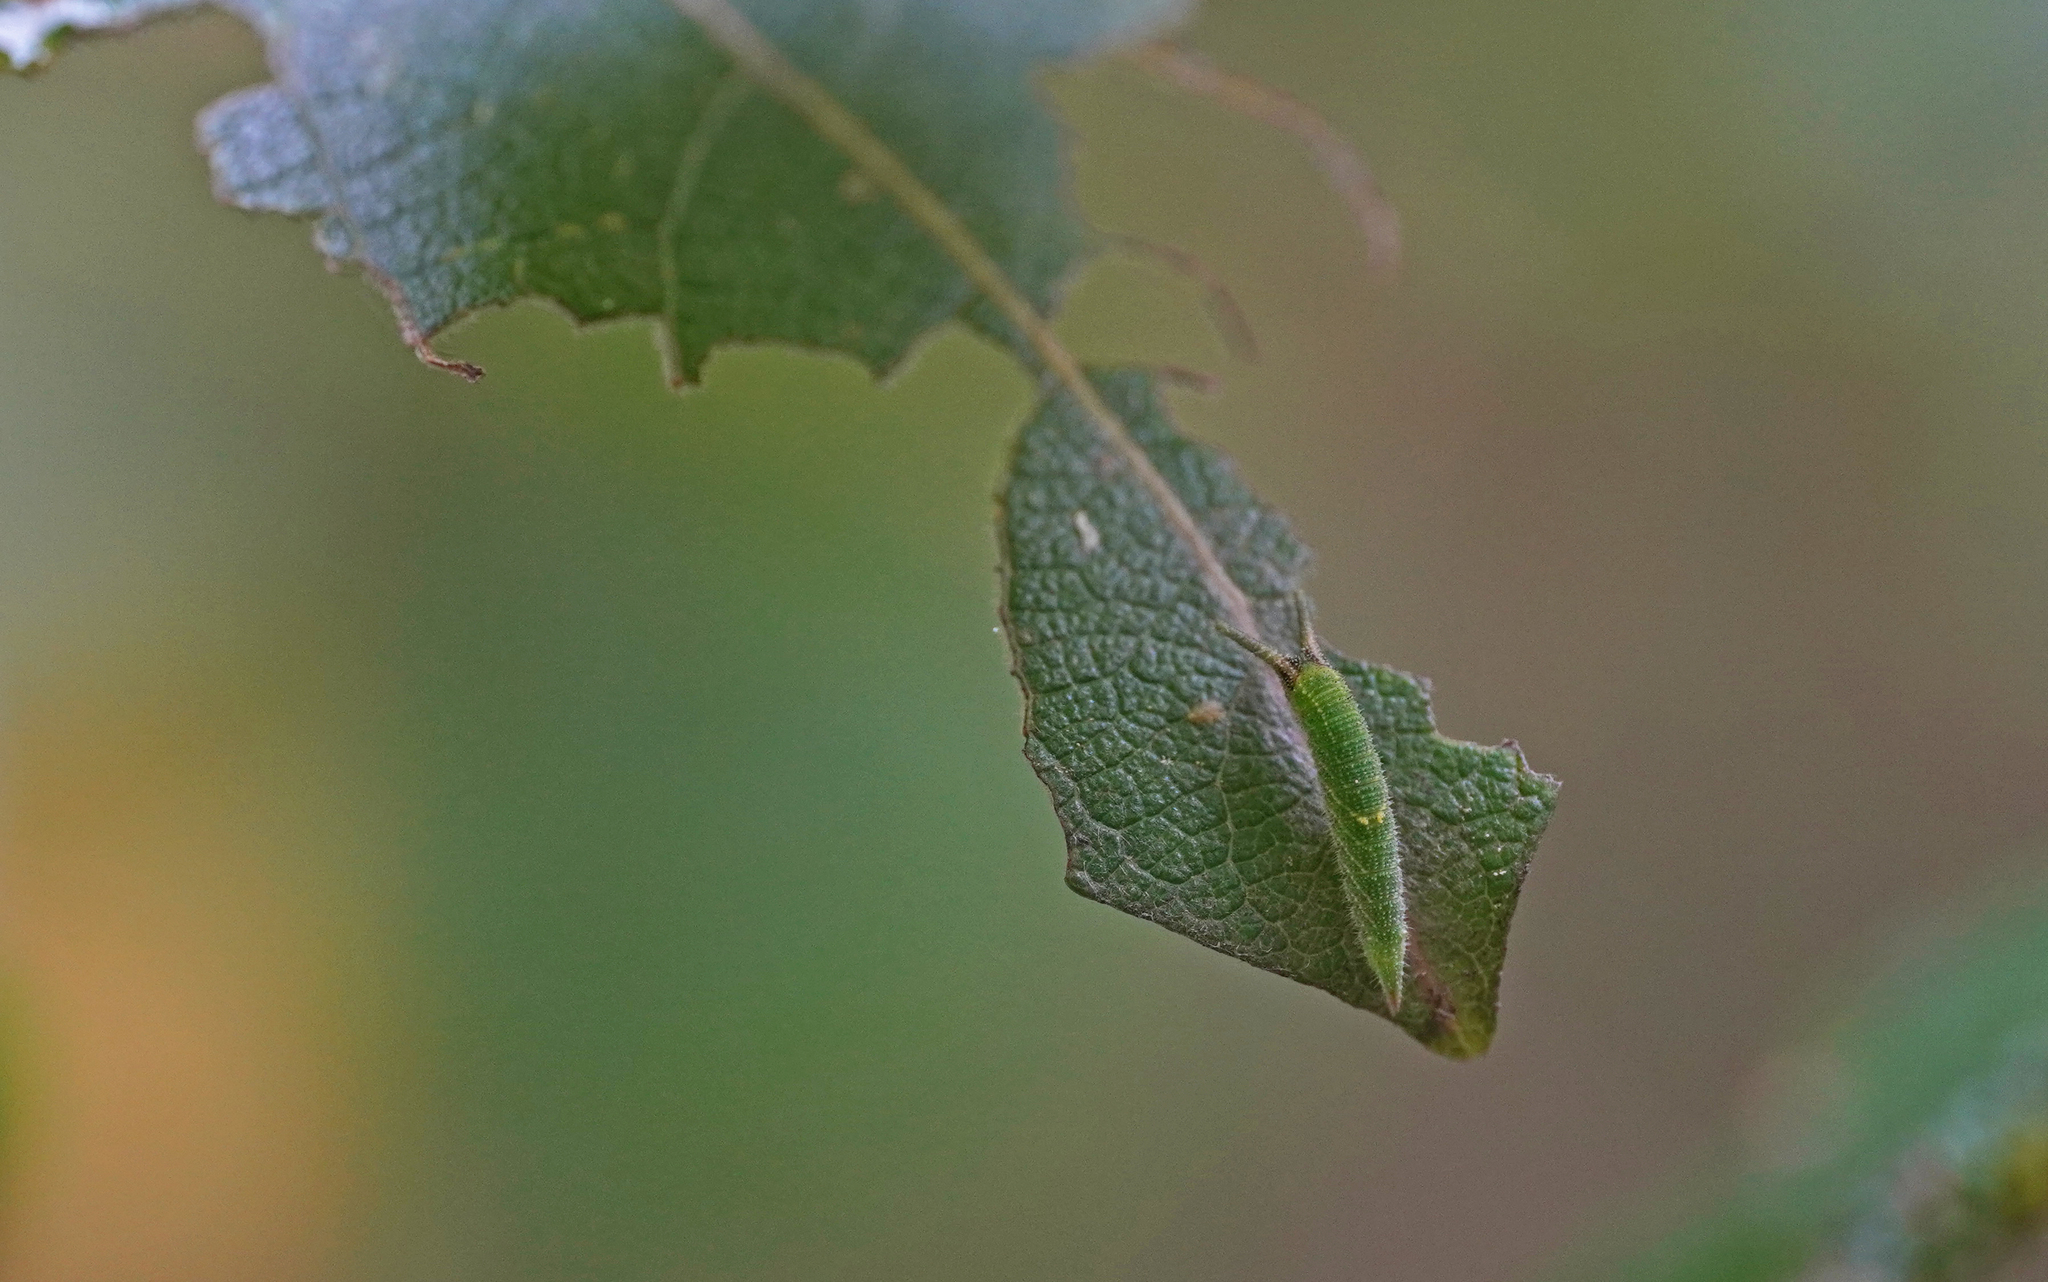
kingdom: Animalia
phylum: Arthropoda
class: Insecta
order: Lepidoptera
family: Nymphalidae
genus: Apatura
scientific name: Apatura iris
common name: Purple emperor
